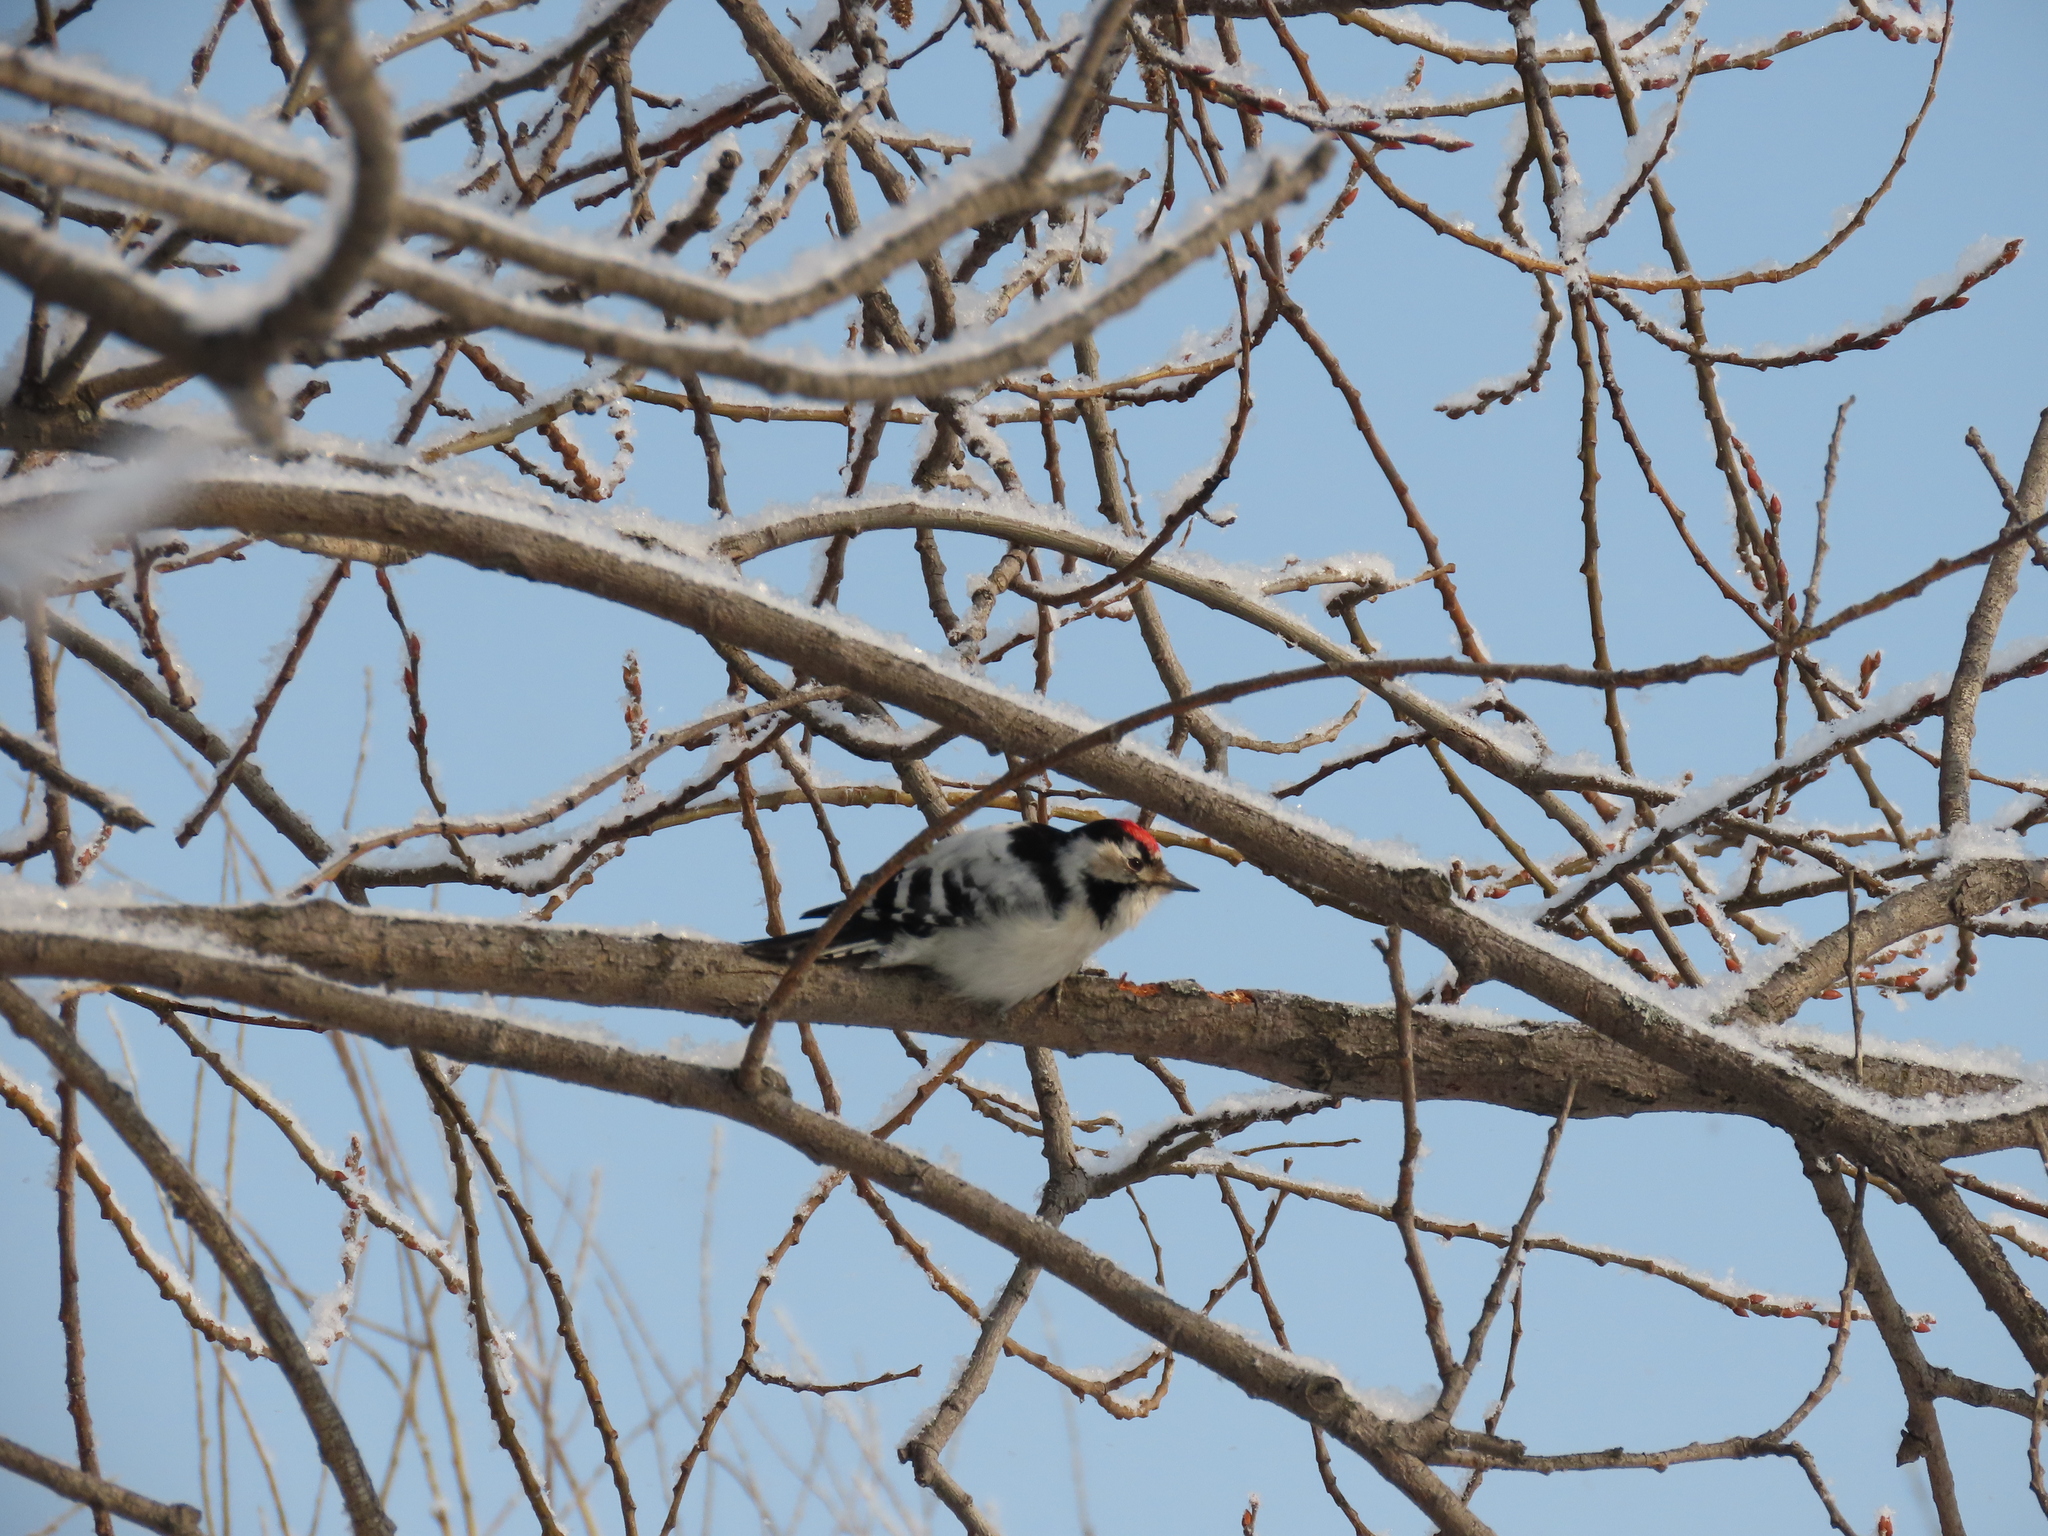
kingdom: Animalia
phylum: Chordata
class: Aves
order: Piciformes
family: Picidae
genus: Dryobates
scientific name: Dryobates minor
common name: Lesser spotted woodpecker
